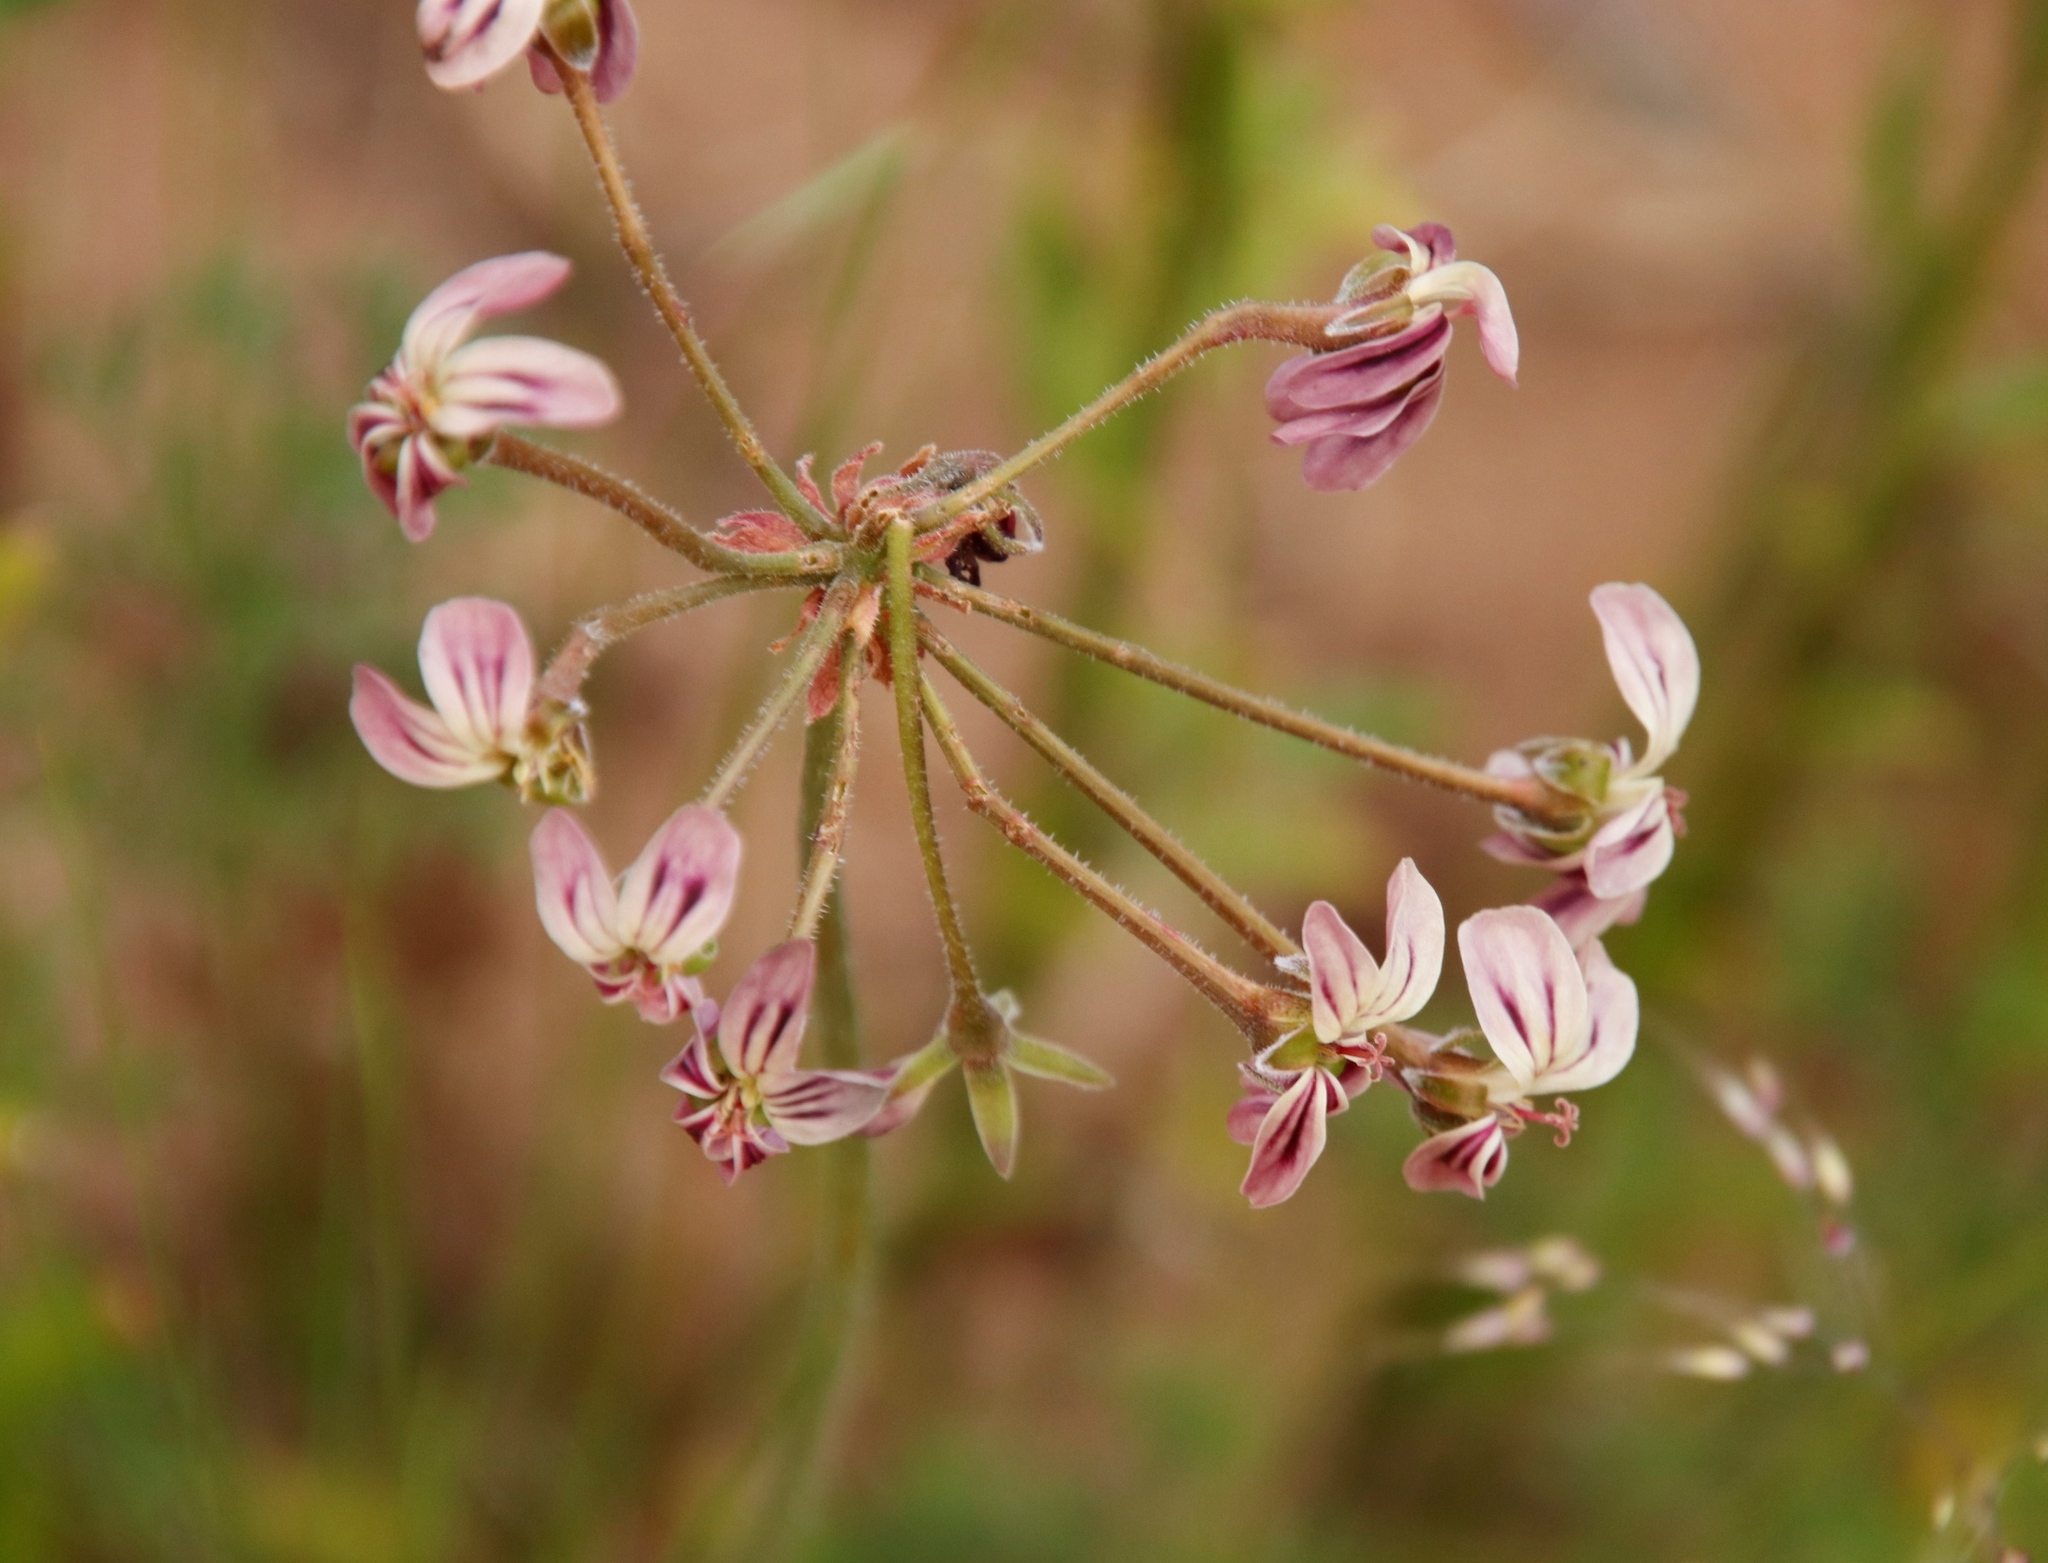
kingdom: Plantae
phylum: Tracheophyta
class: Magnoliopsida
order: Geraniales
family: Geraniaceae
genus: Pelargonium
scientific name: Pelargonium triste
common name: Night-scent pelargonium
